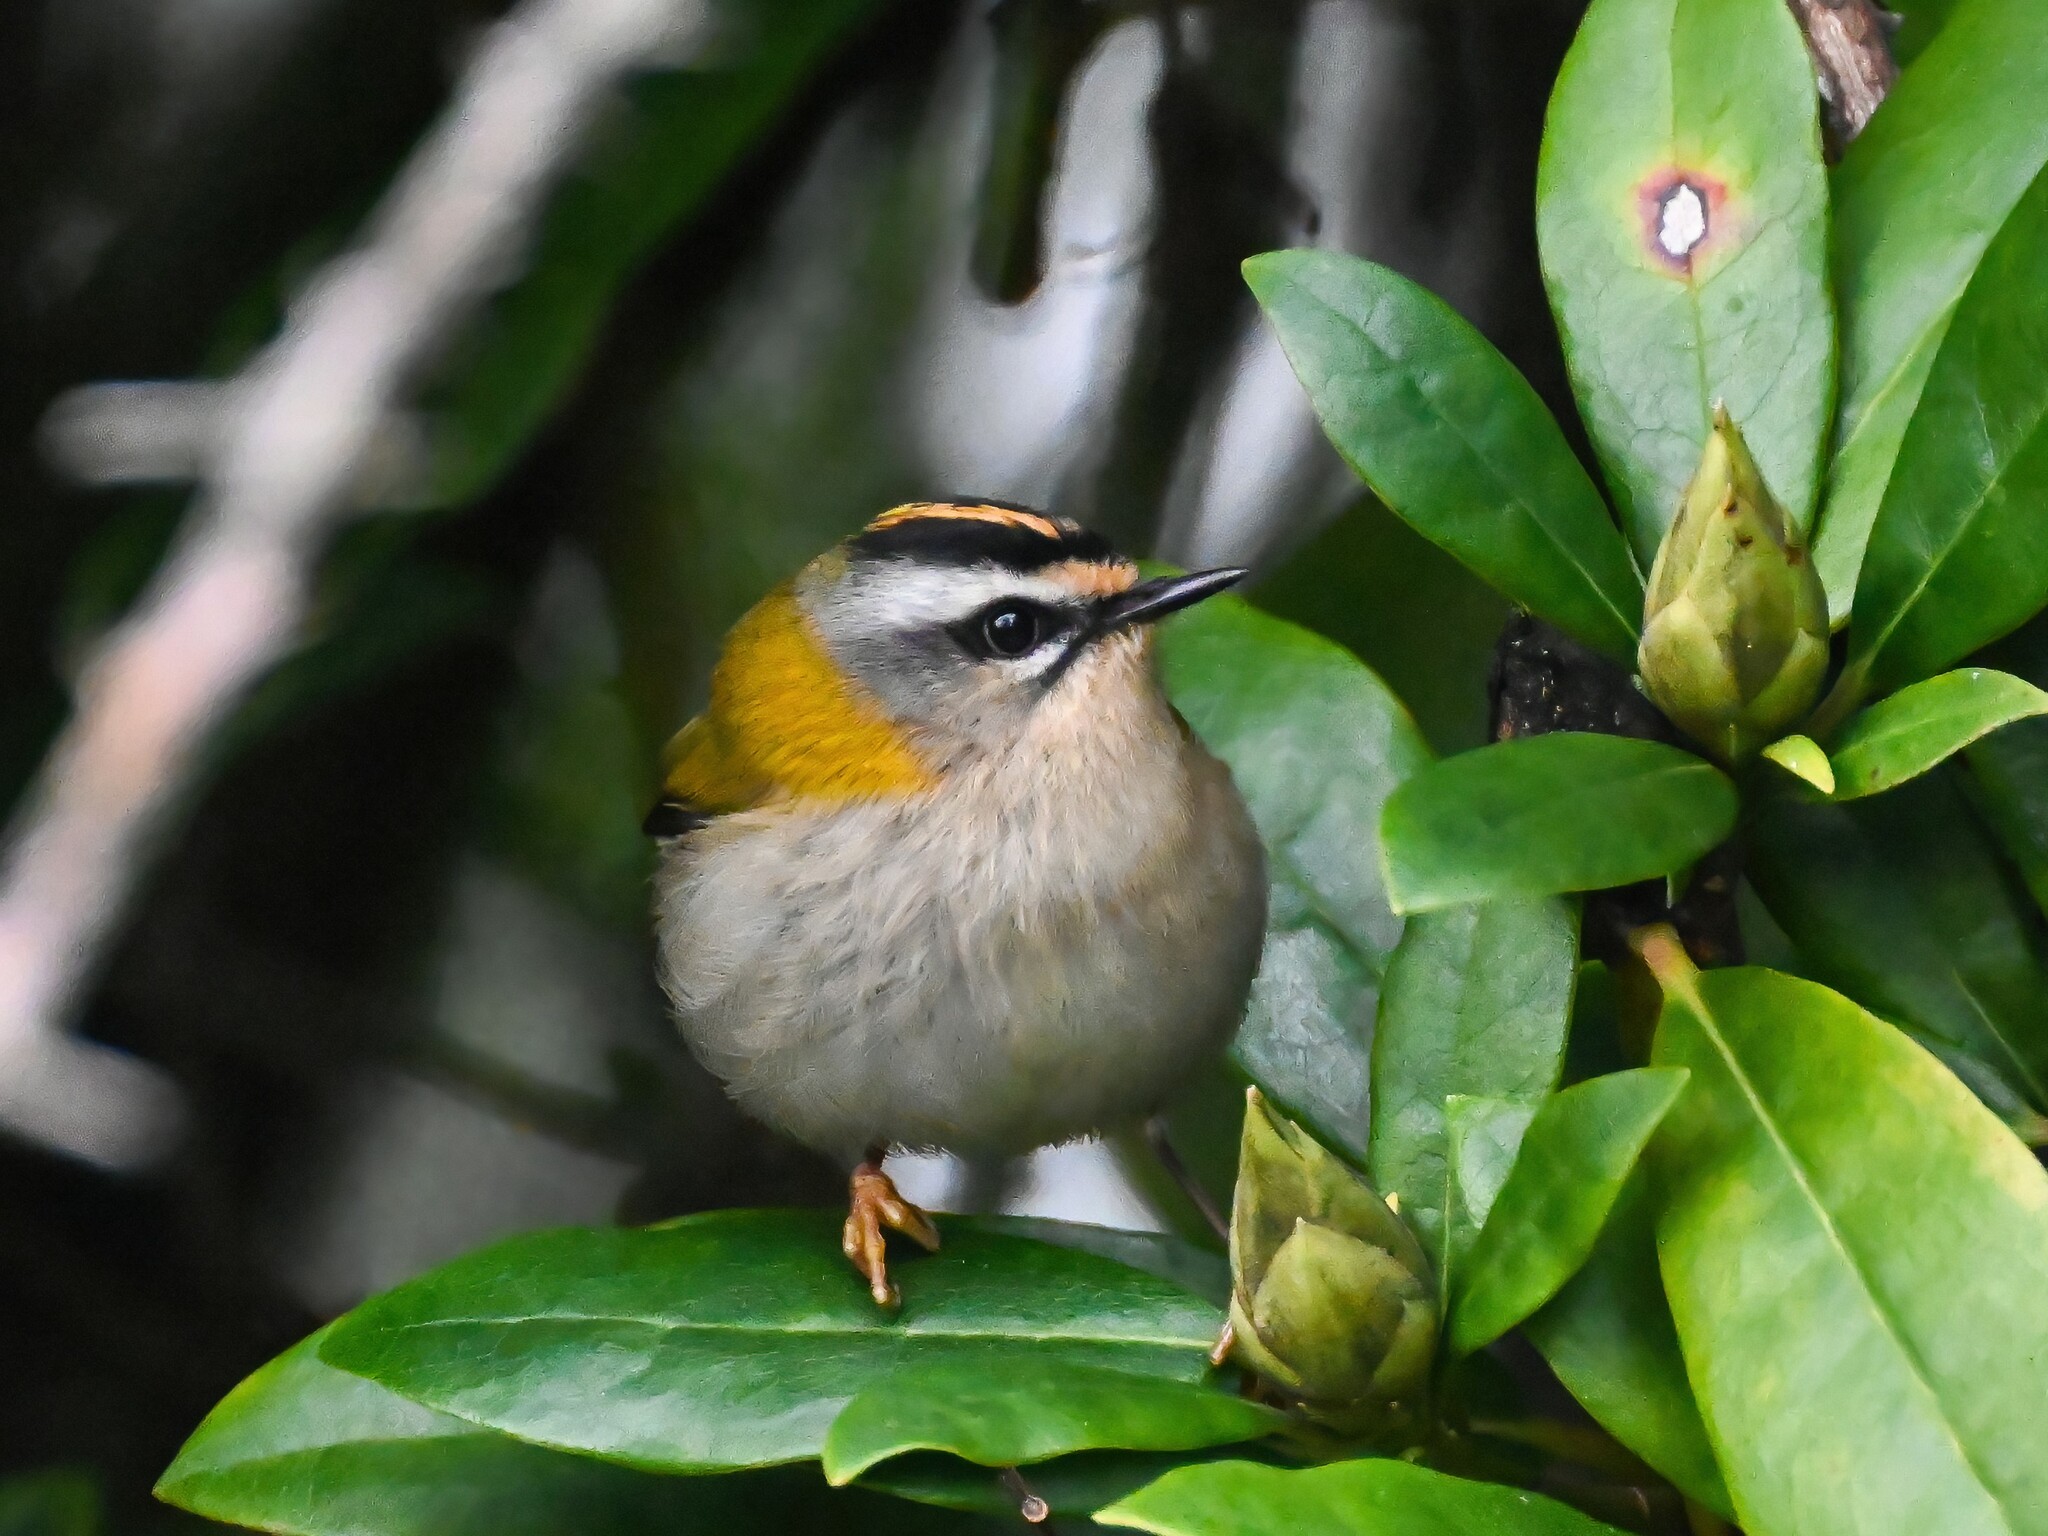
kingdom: Animalia
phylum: Chordata
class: Aves
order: Passeriformes
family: Regulidae
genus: Regulus
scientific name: Regulus ignicapilla
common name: Firecrest
